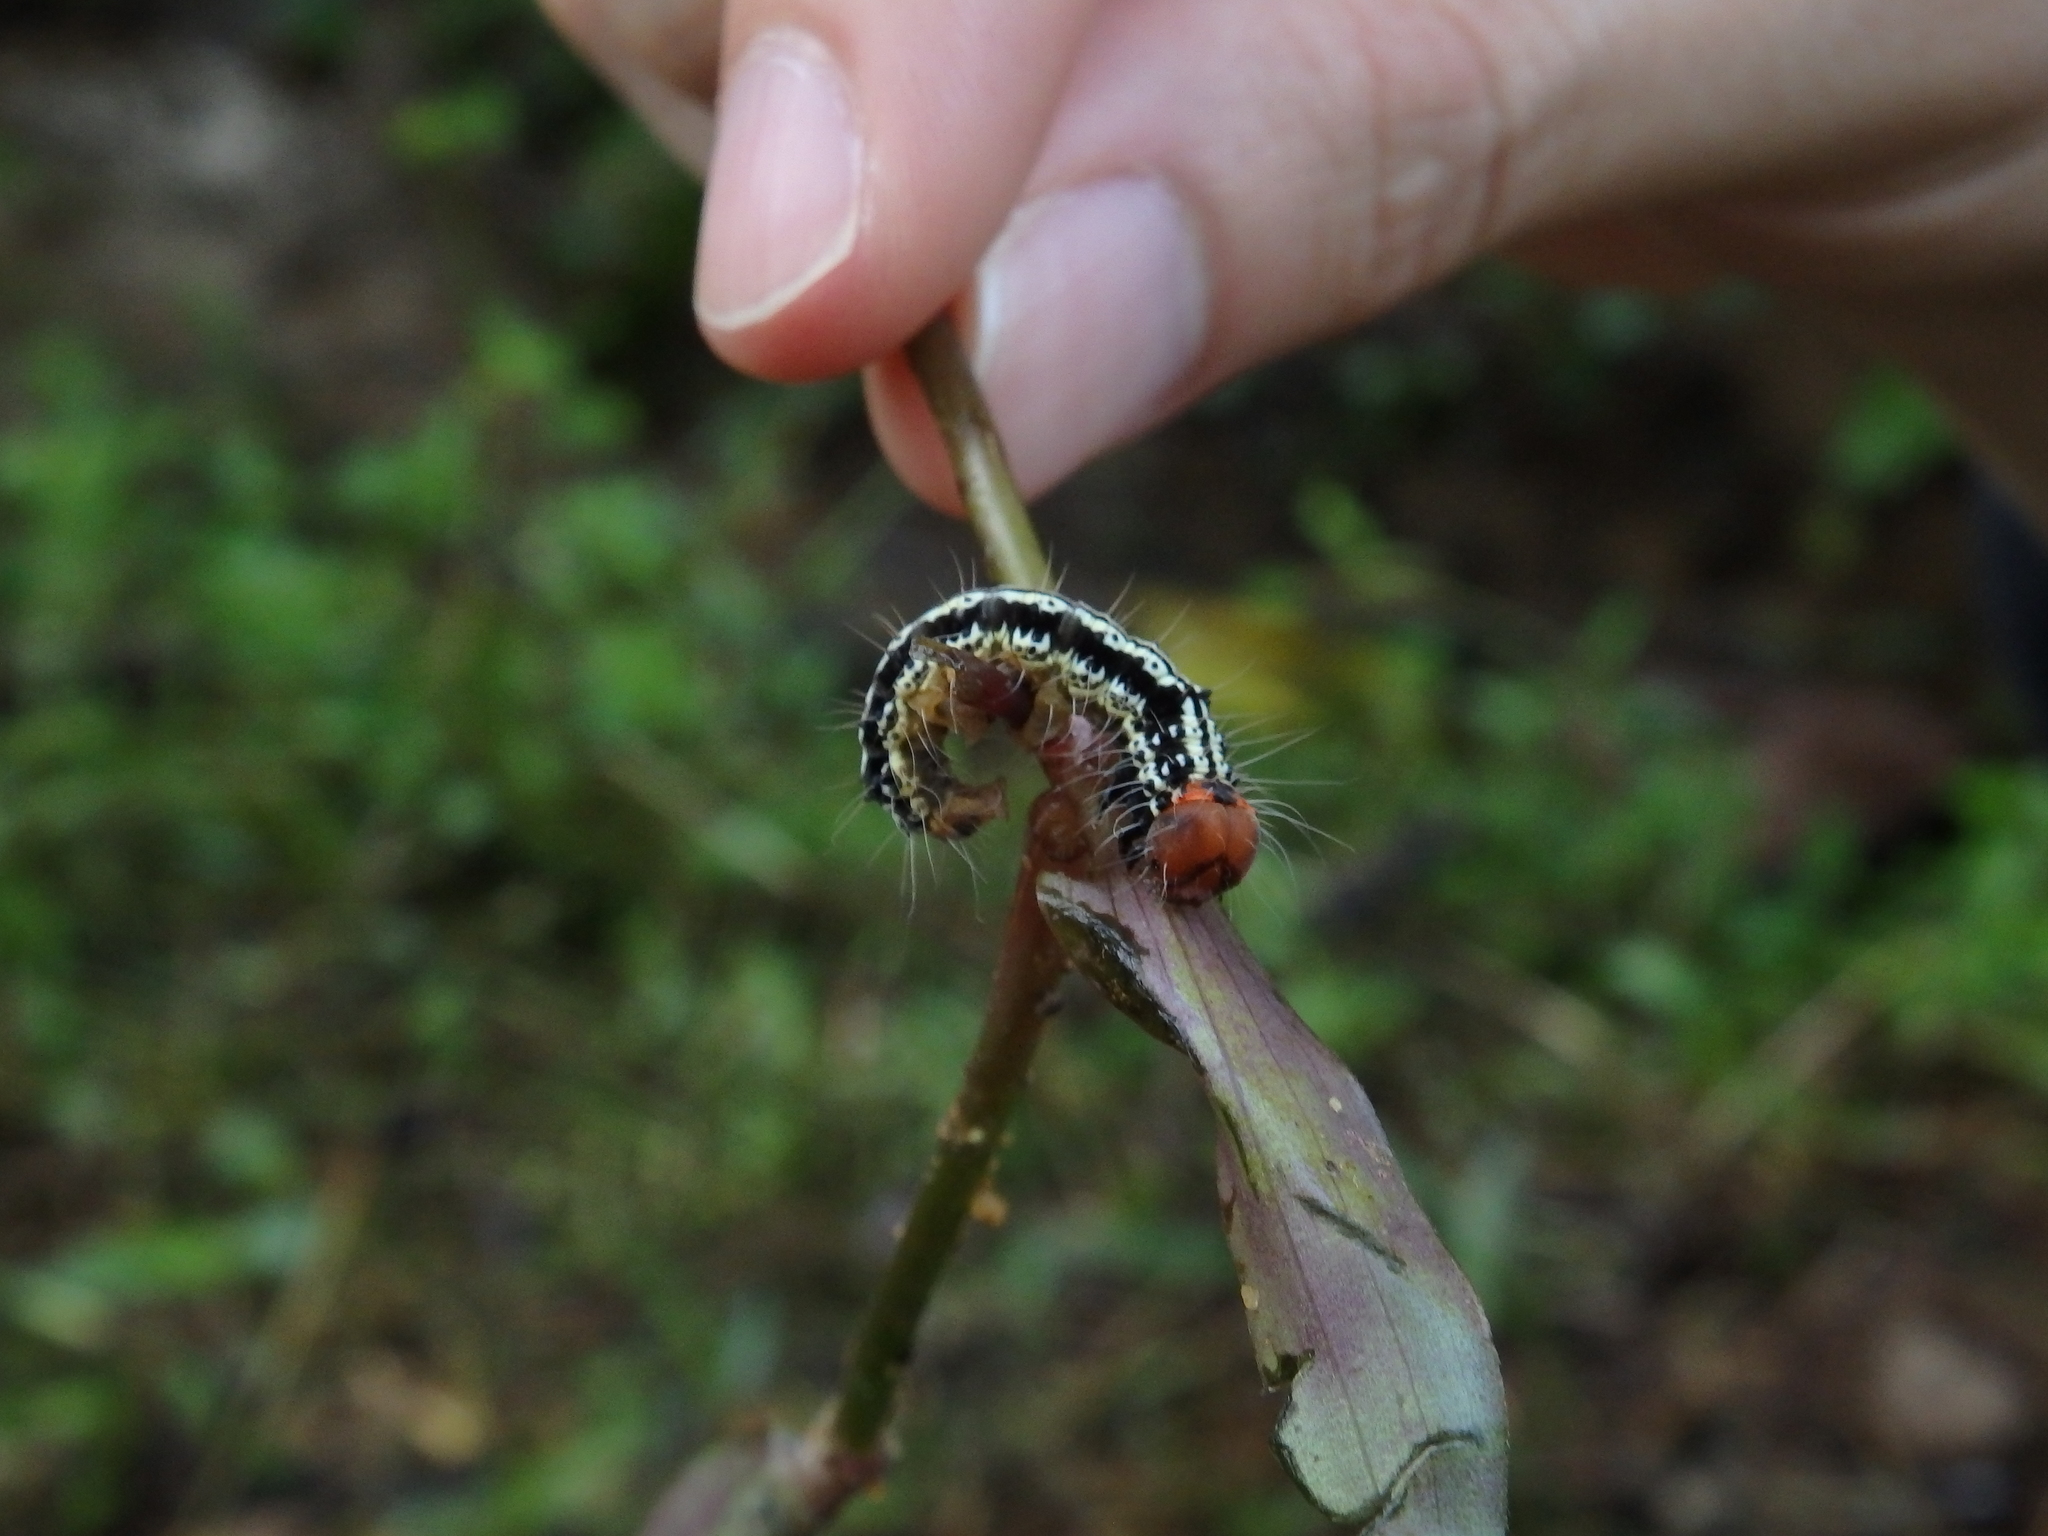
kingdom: Animalia
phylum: Arthropoda
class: Insecta
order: Lepidoptera
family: Erebidae
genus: Asota
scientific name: Asota caricae
